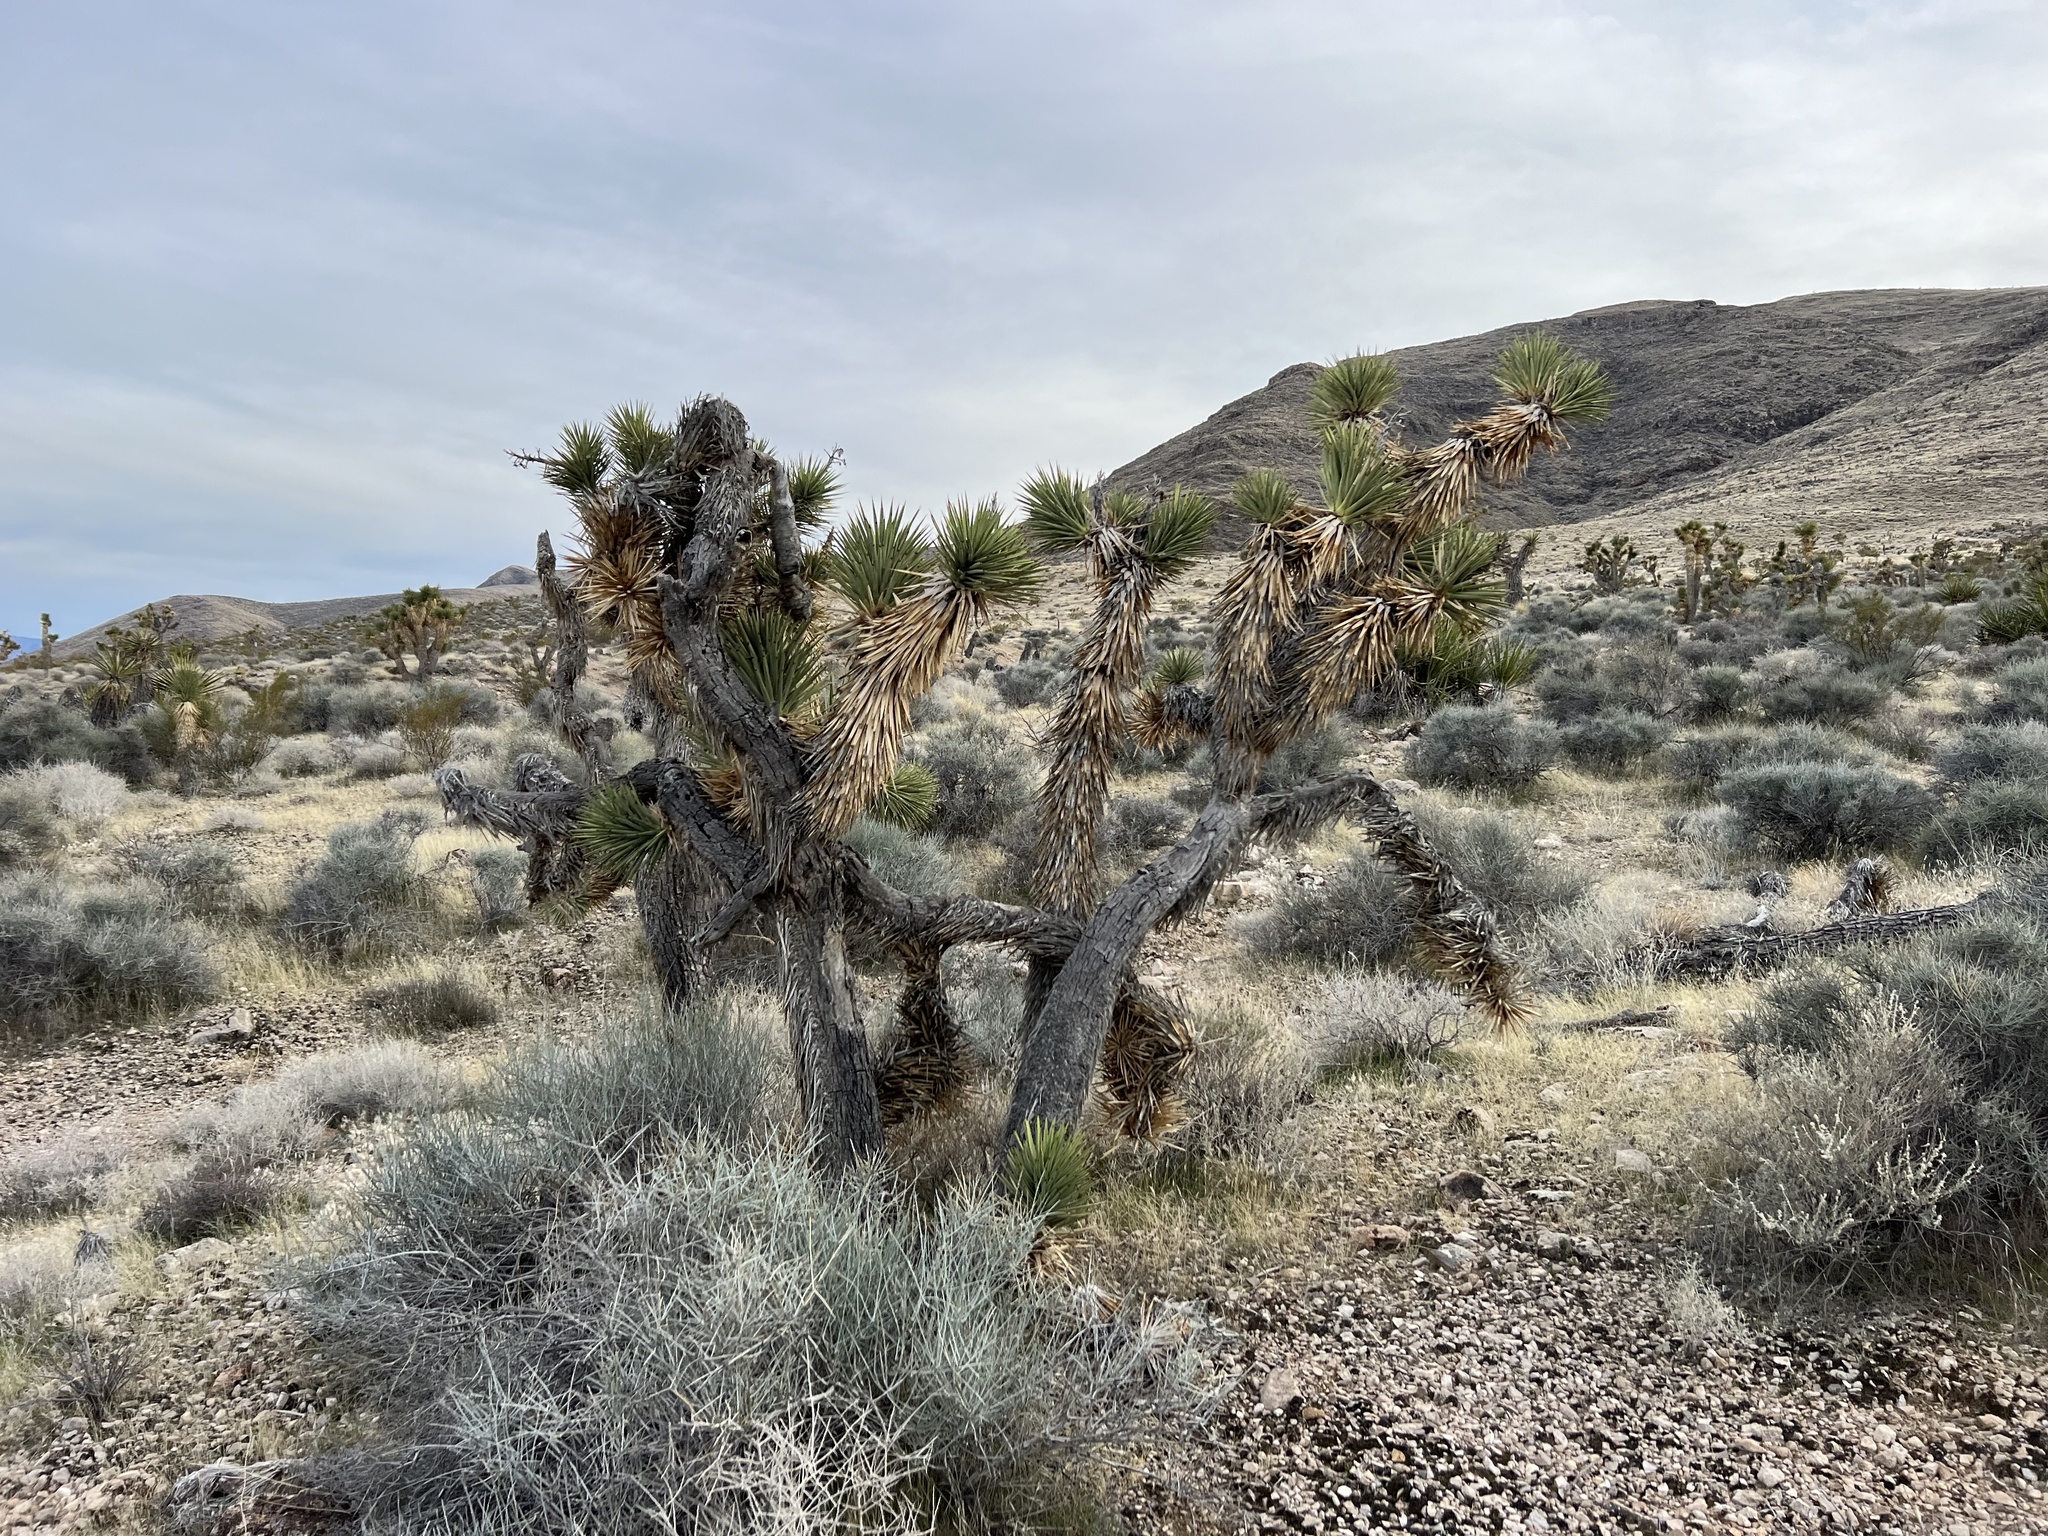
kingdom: Plantae
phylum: Tracheophyta
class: Liliopsida
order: Asparagales
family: Asparagaceae
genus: Yucca
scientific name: Yucca brevifolia
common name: Joshua tree
